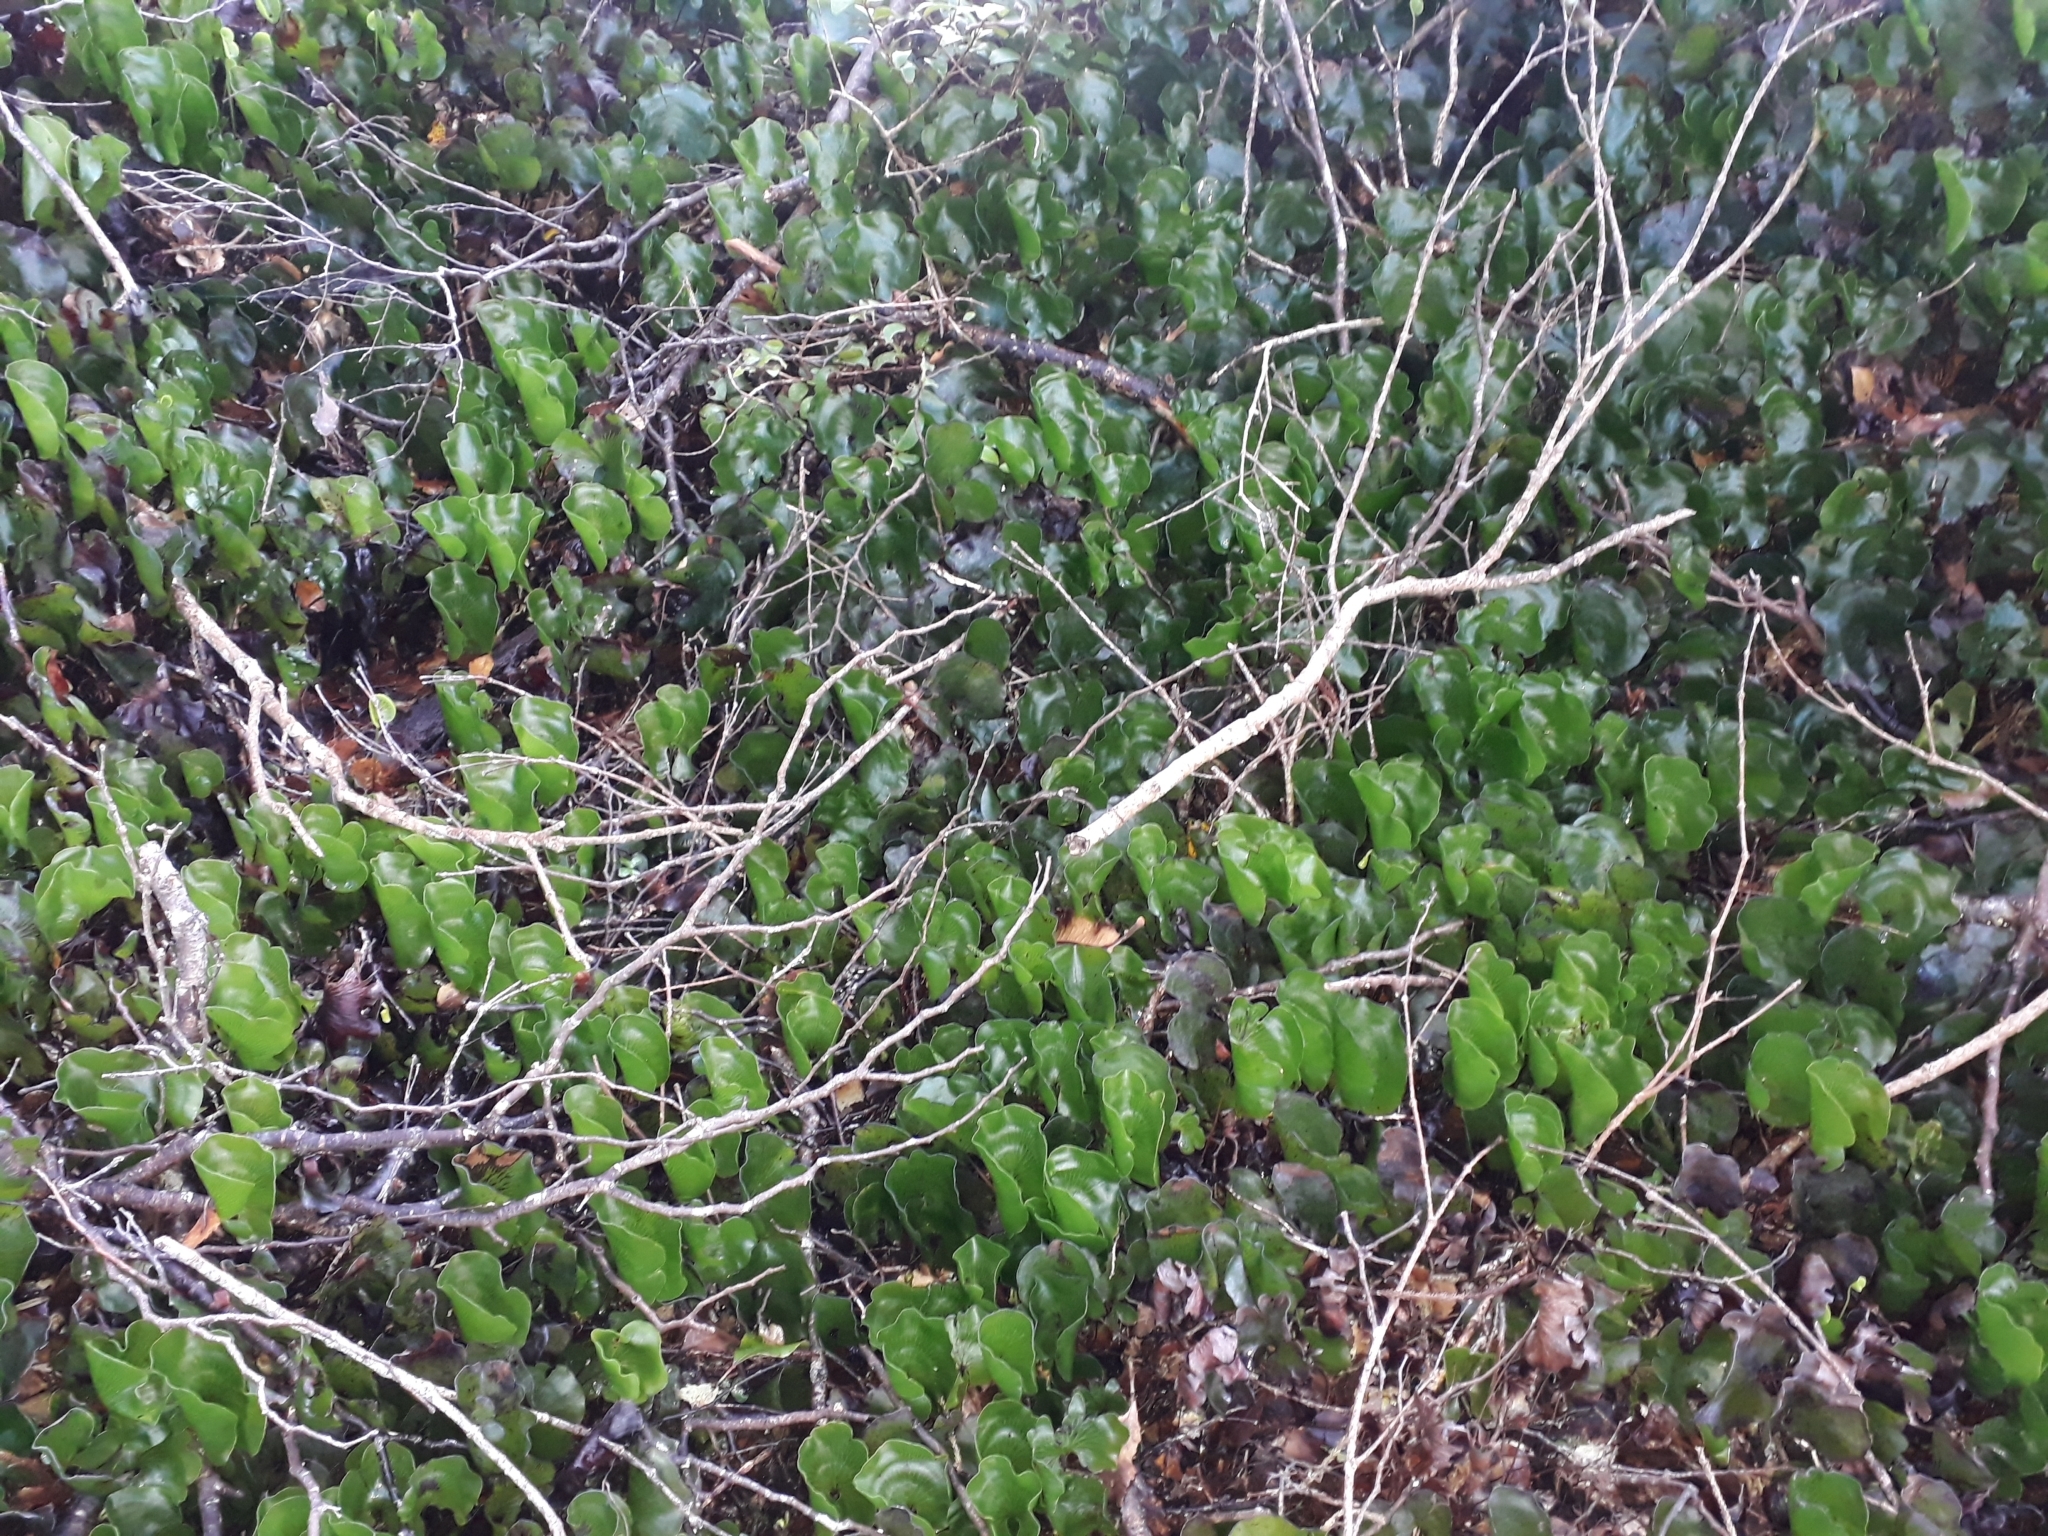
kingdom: Plantae
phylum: Tracheophyta
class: Polypodiopsida
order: Hymenophyllales
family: Hymenophyllaceae
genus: Hymenophyllum
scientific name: Hymenophyllum nephrophyllum
